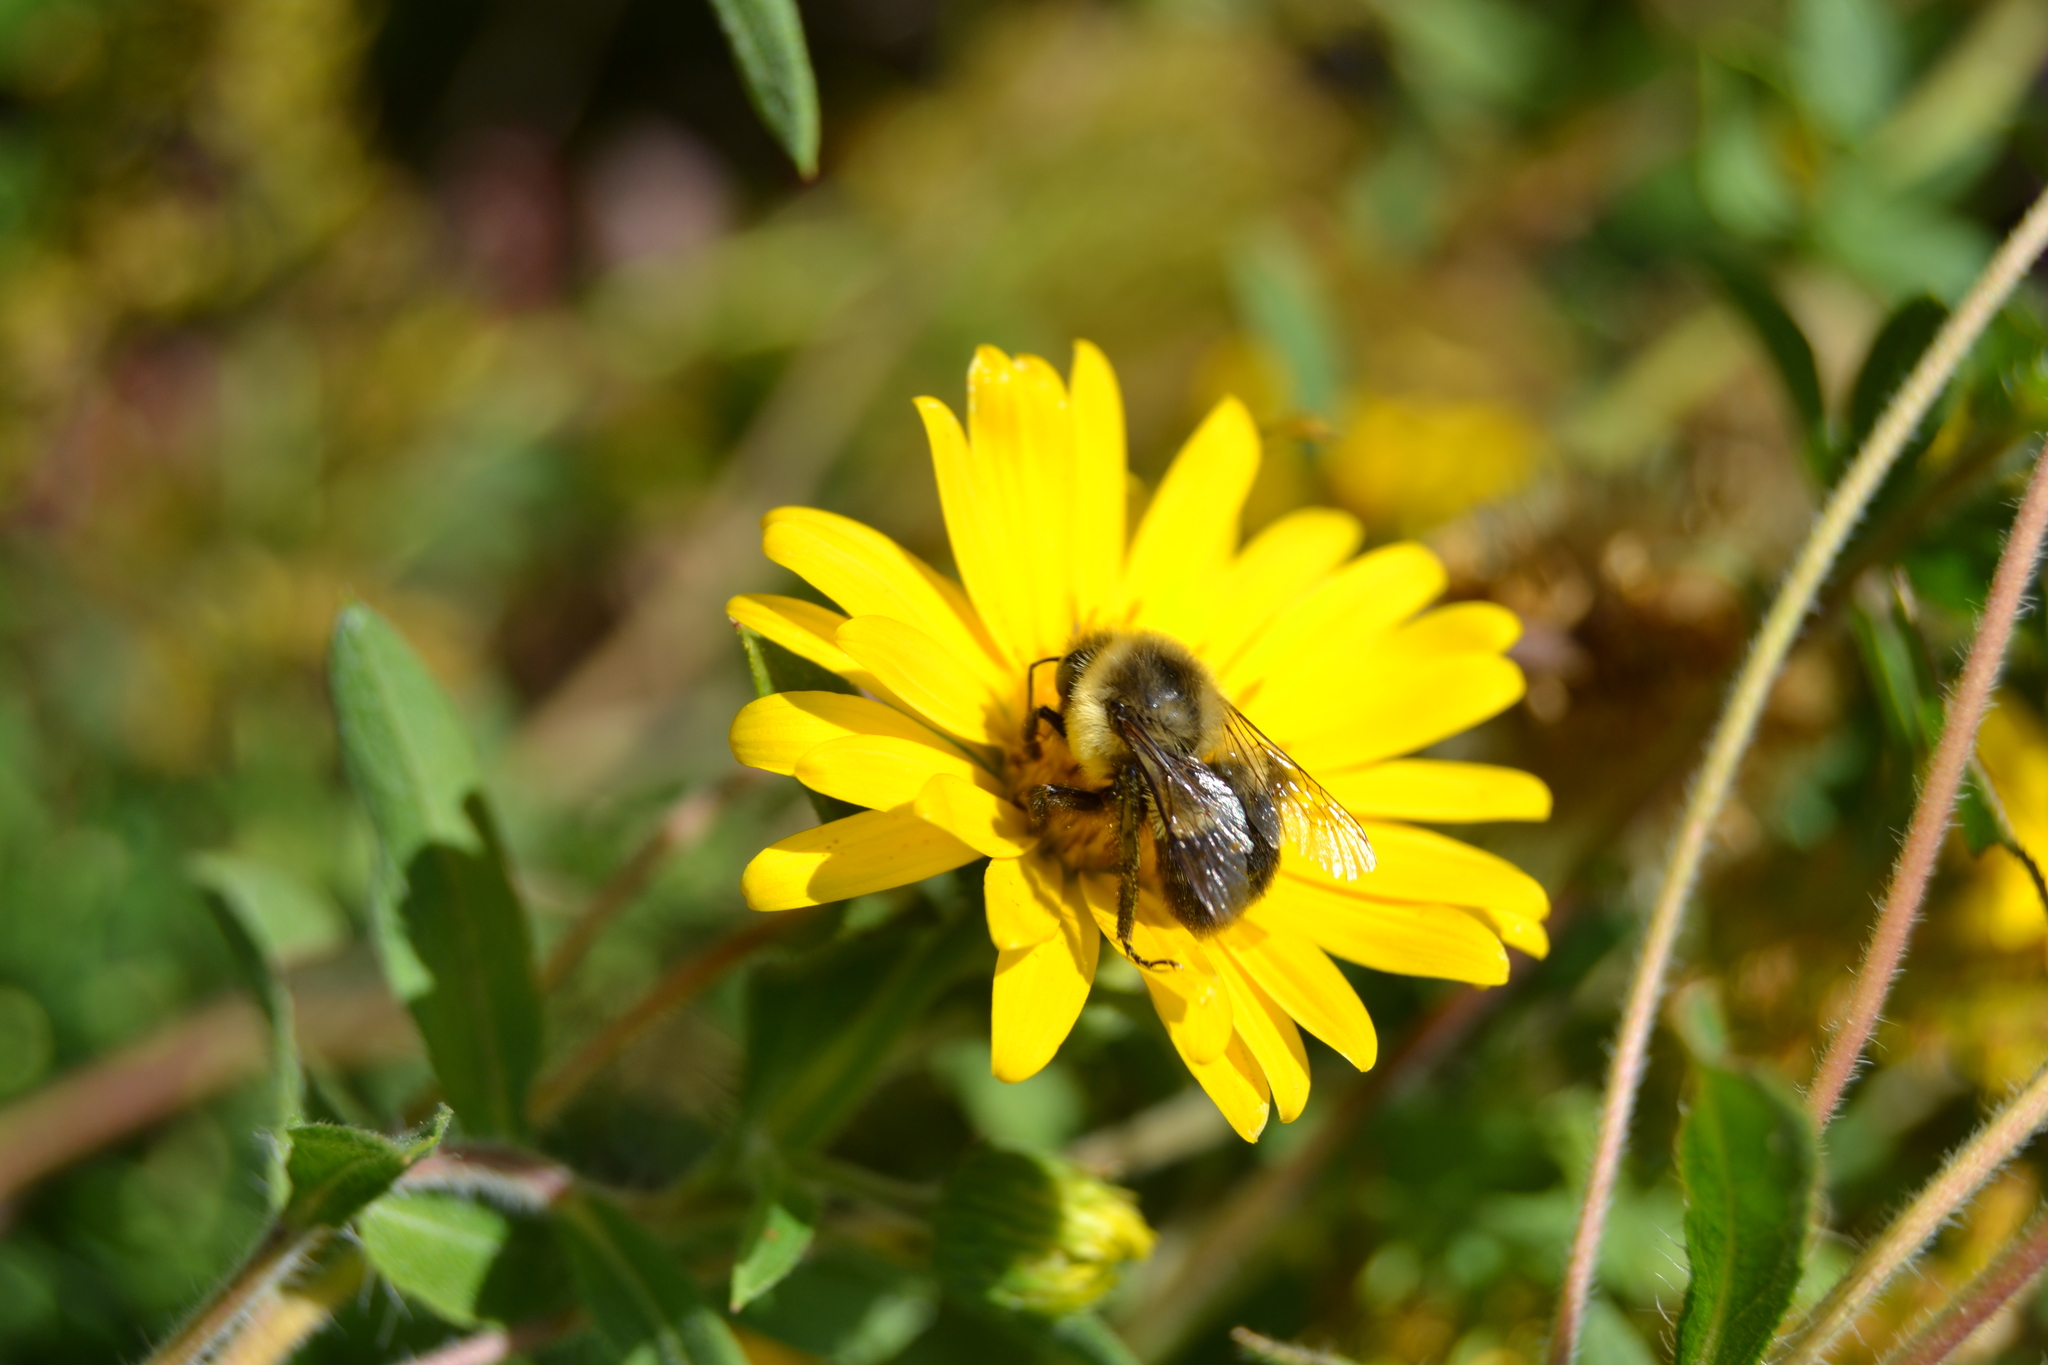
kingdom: Animalia
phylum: Arthropoda
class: Insecta
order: Hymenoptera
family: Apidae
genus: Bombus
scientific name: Bombus impatiens
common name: Common eastern bumble bee
